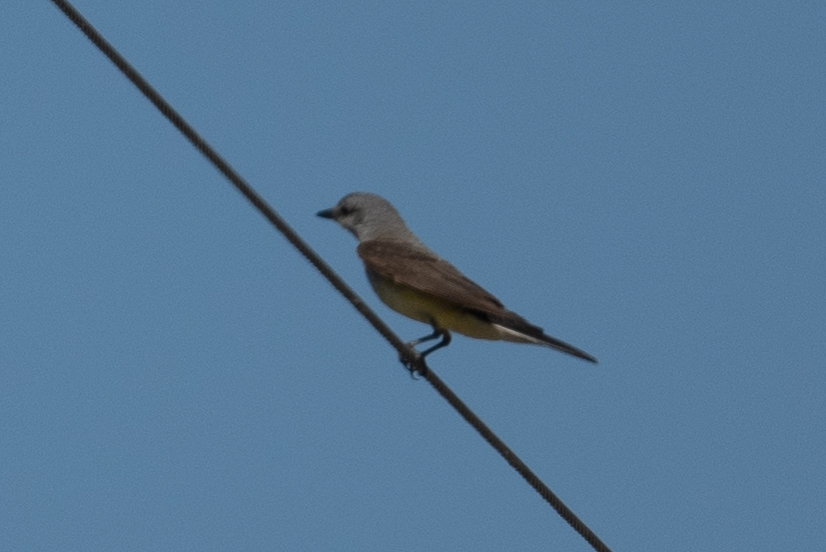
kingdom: Animalia
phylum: Chordata
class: Aves
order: Passeriformes
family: Tyrannidae
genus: Tyrannus
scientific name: Tyrannus verticalis
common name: Western kingbird
